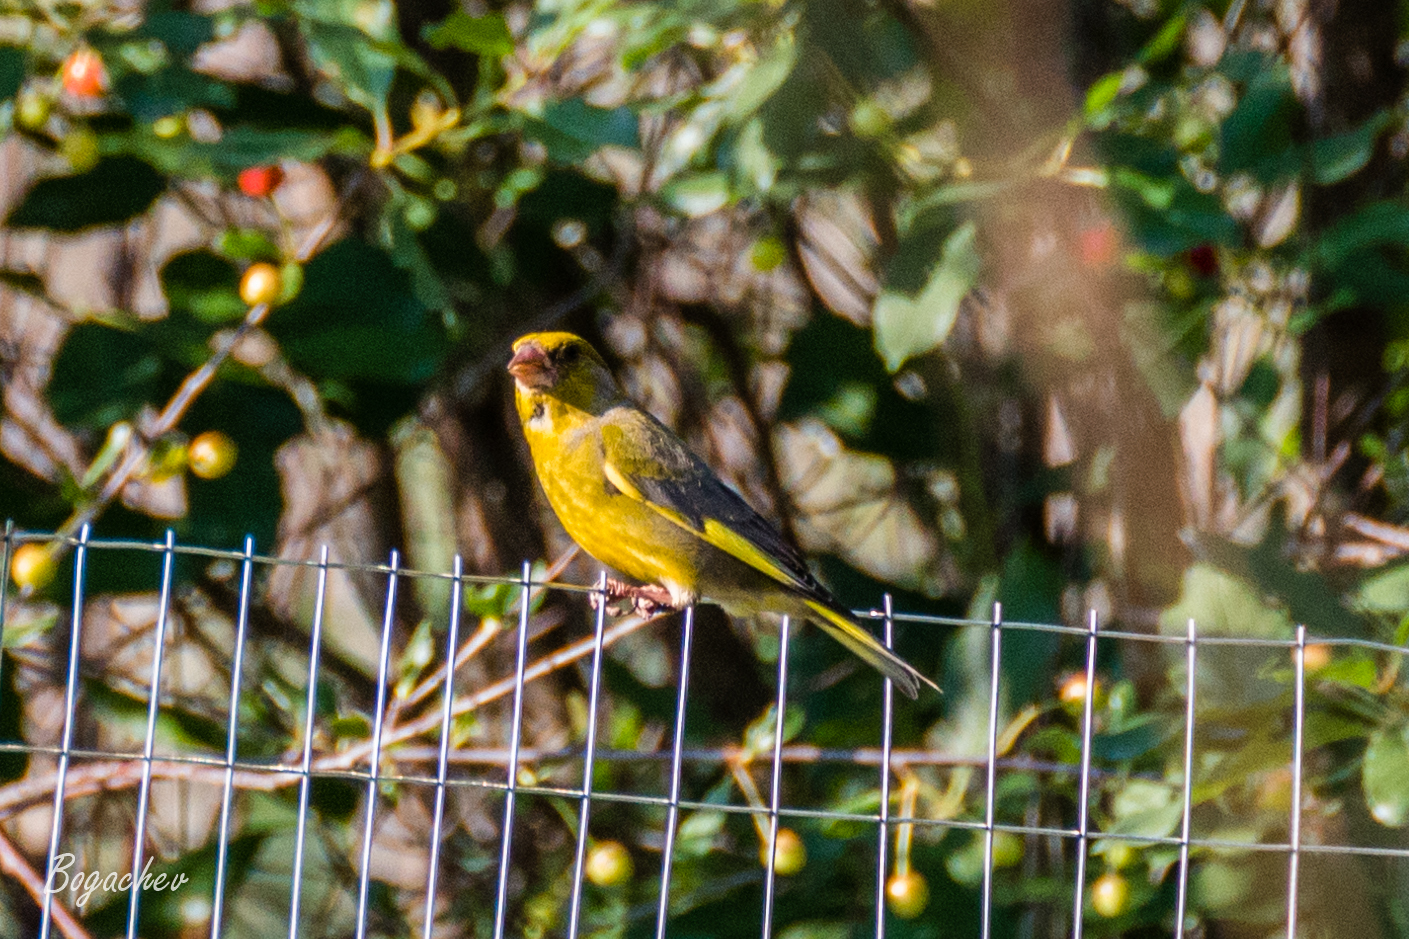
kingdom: Plantae
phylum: Tracheophyta
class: Liliopsida
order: Poales
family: Poaceae
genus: Chloris
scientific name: Chloris chloris
